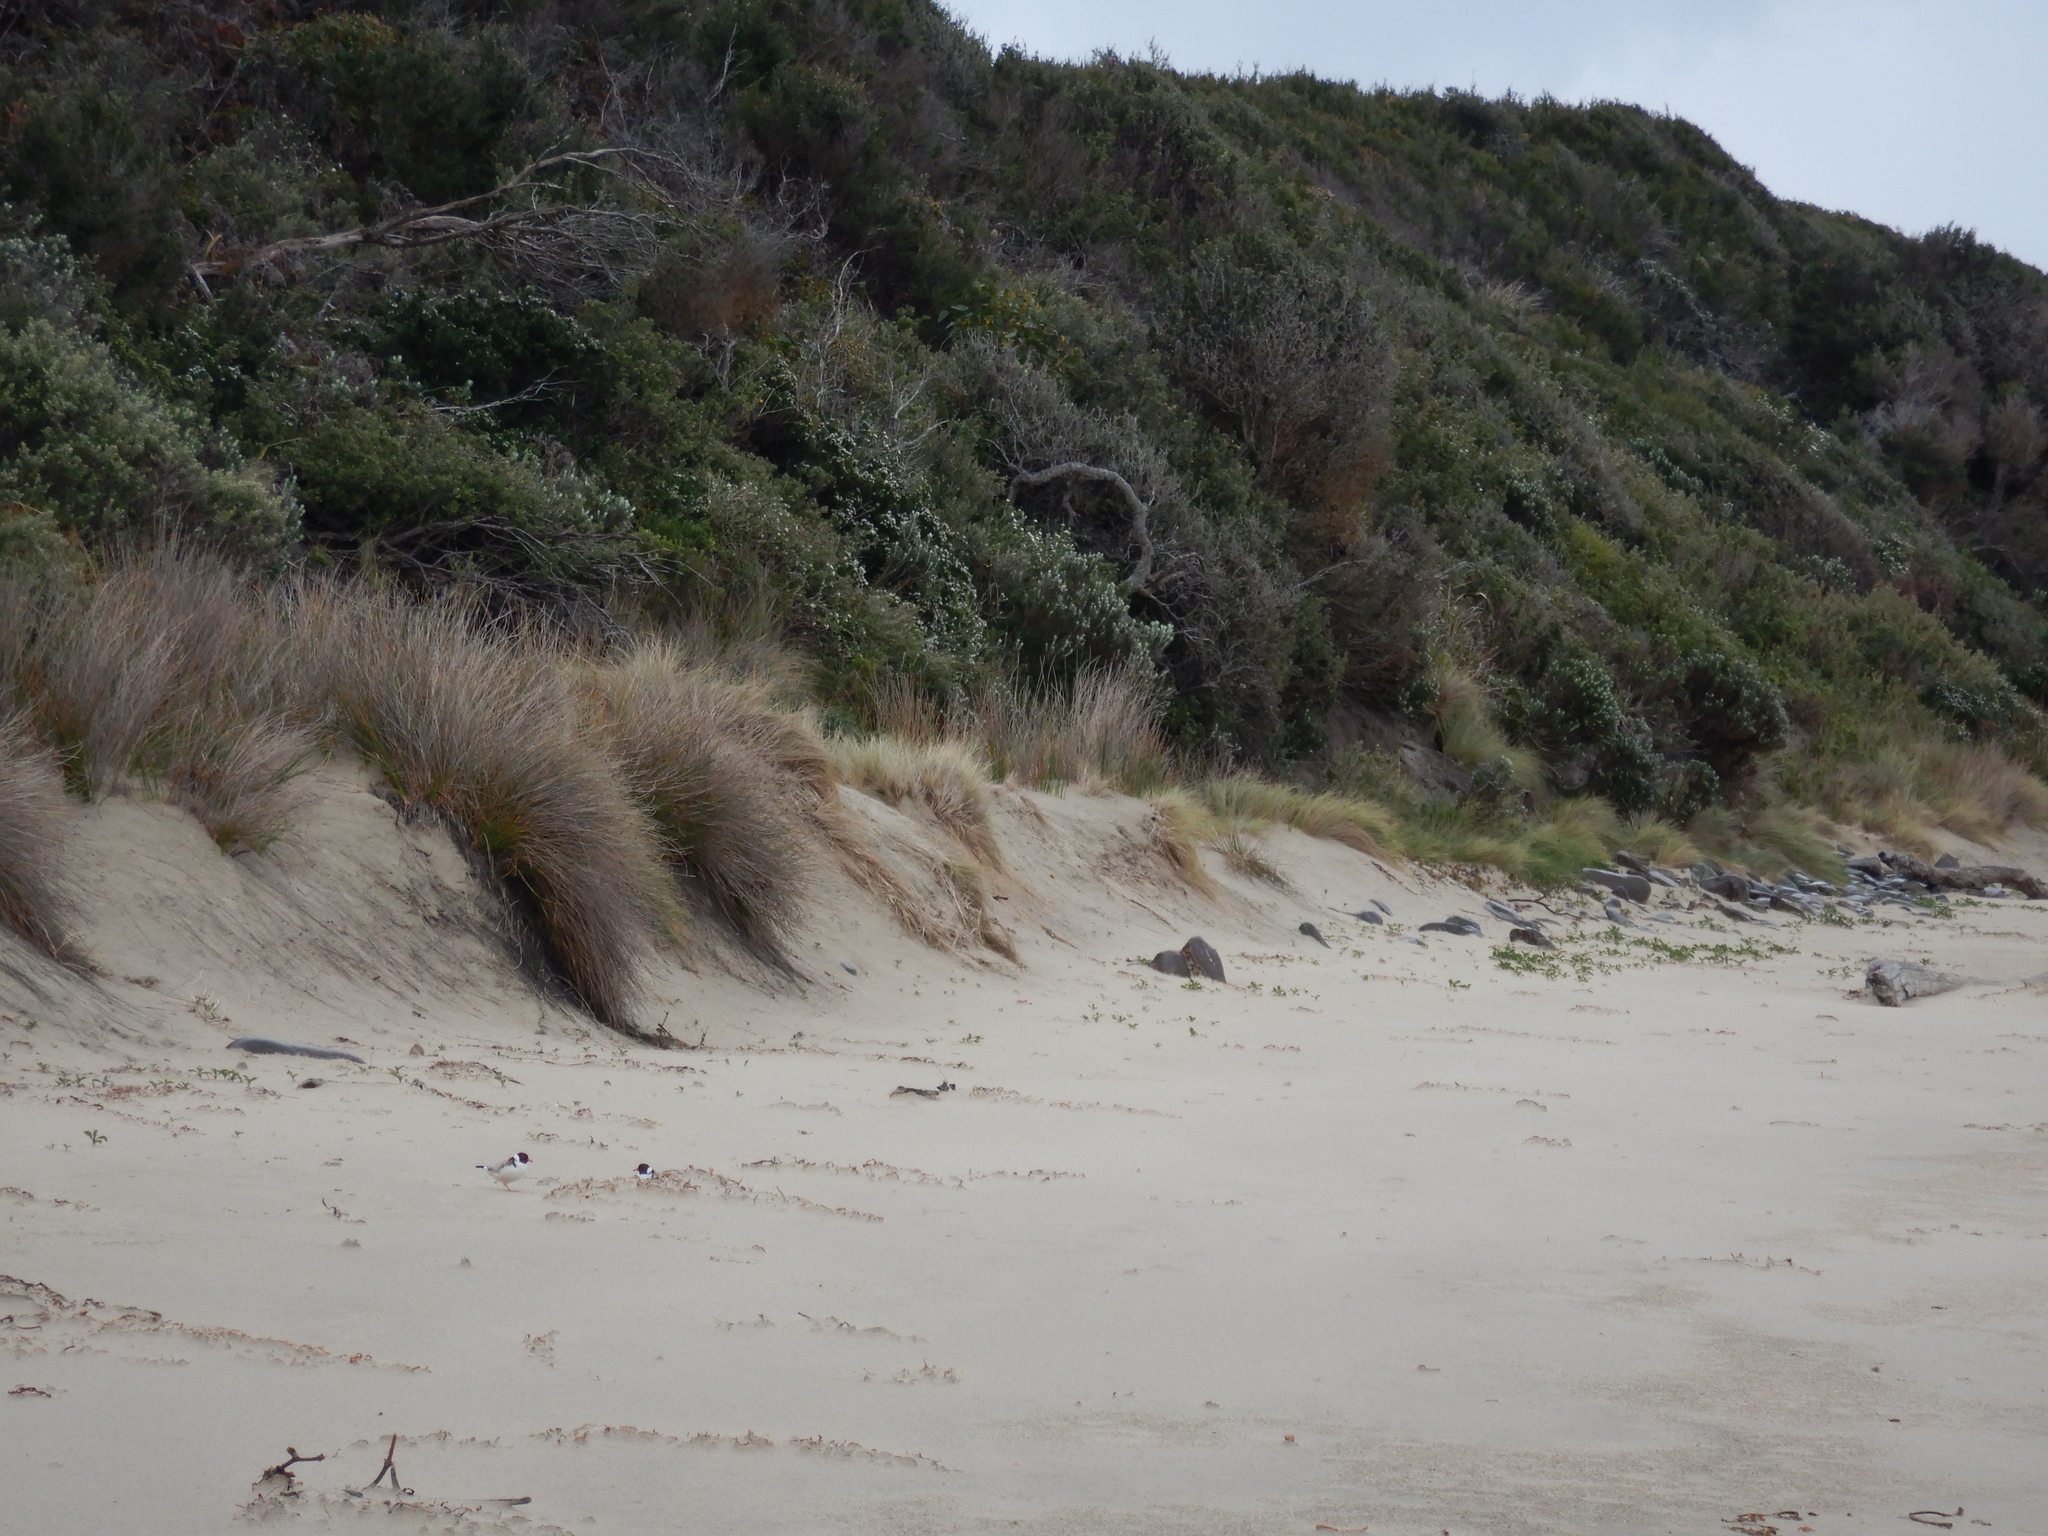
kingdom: Animalia
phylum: Chordata
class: Aves
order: Charadriiformes
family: Charadriidae
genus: Thinornis
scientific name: Thinornis cucullatus
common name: Hooded dotterel
